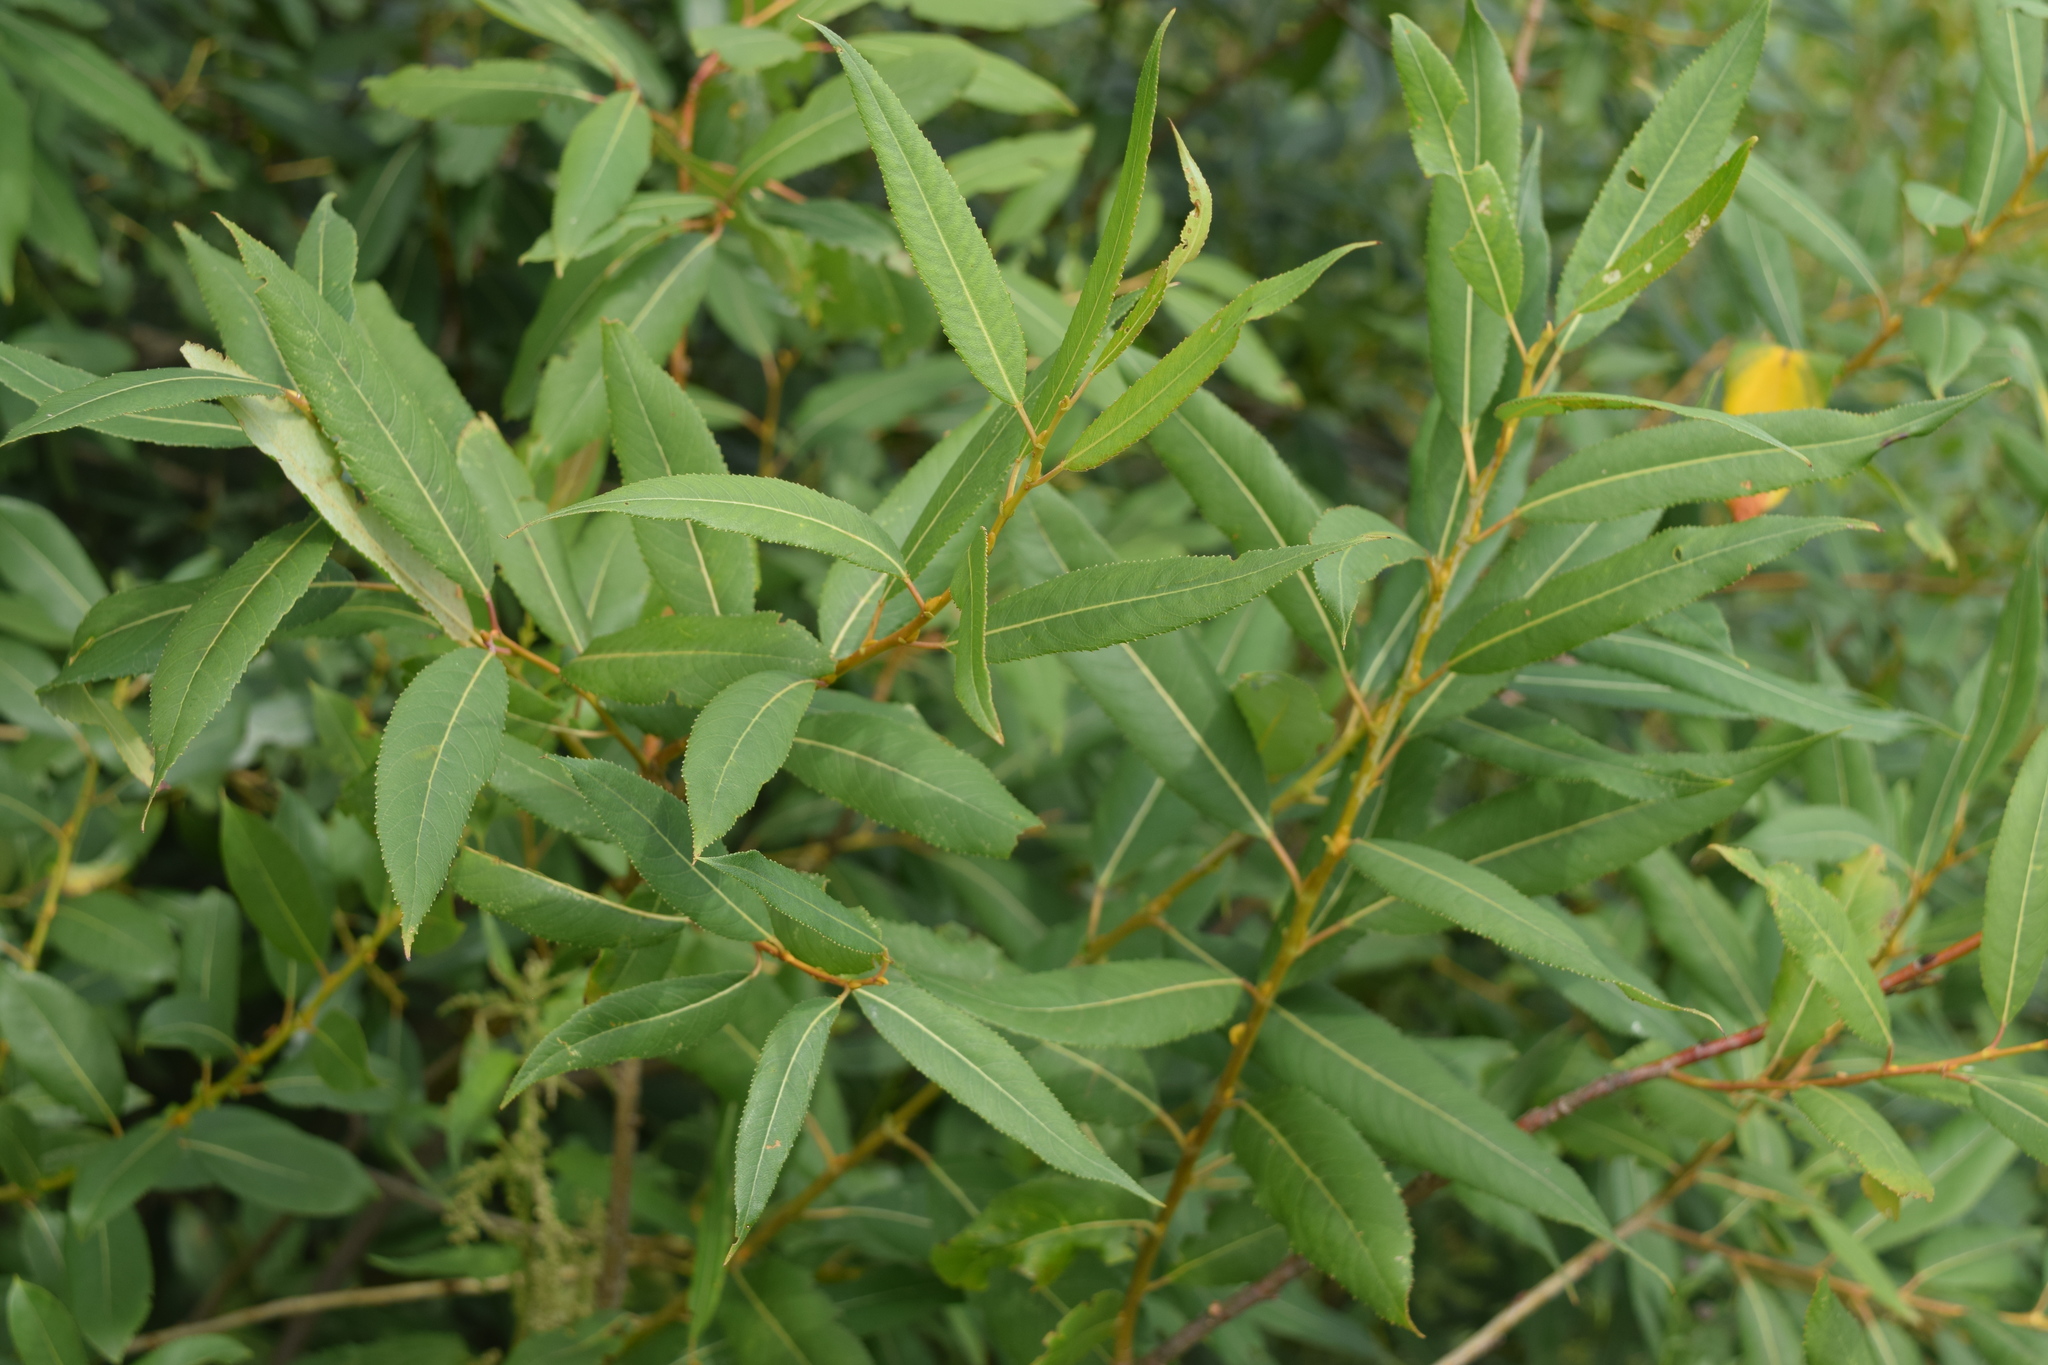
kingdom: Plantae
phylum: Tracheophyta
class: Magnoliopsida
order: Malpighiales
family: Salicaceae
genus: Salix
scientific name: Salix triandra
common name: Almond willow
